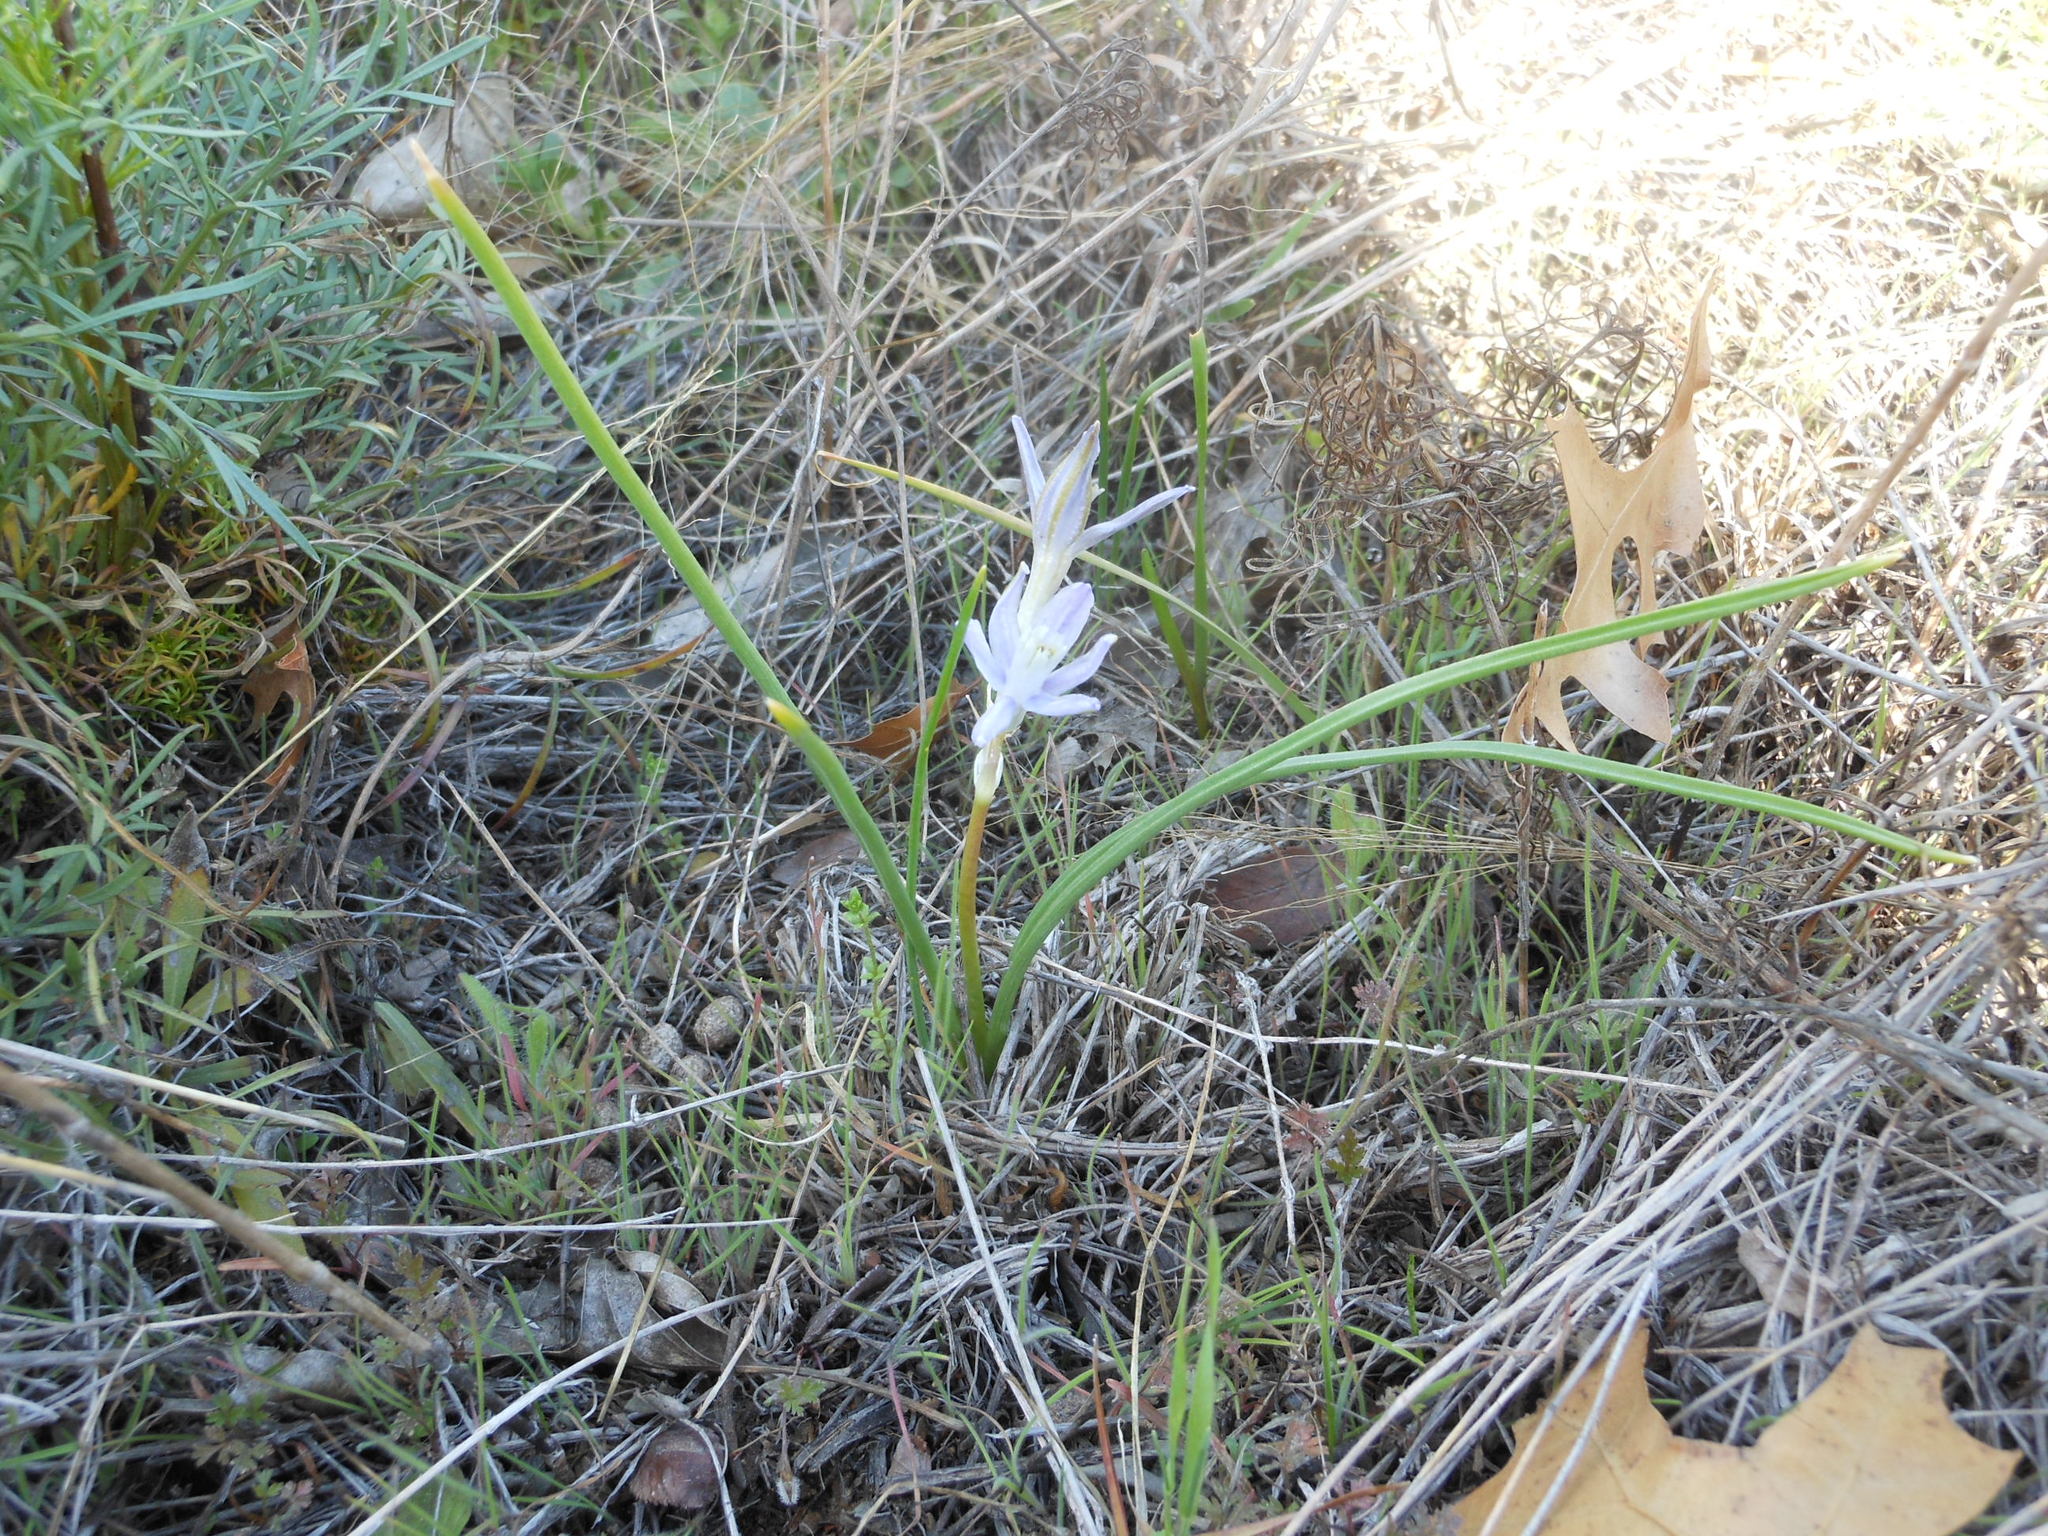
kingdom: Plantae
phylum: Tracheophyta
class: Liliopsida
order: Asparagales
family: Asparagaceae
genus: Androstephium
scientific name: Androstephium coeruleum
